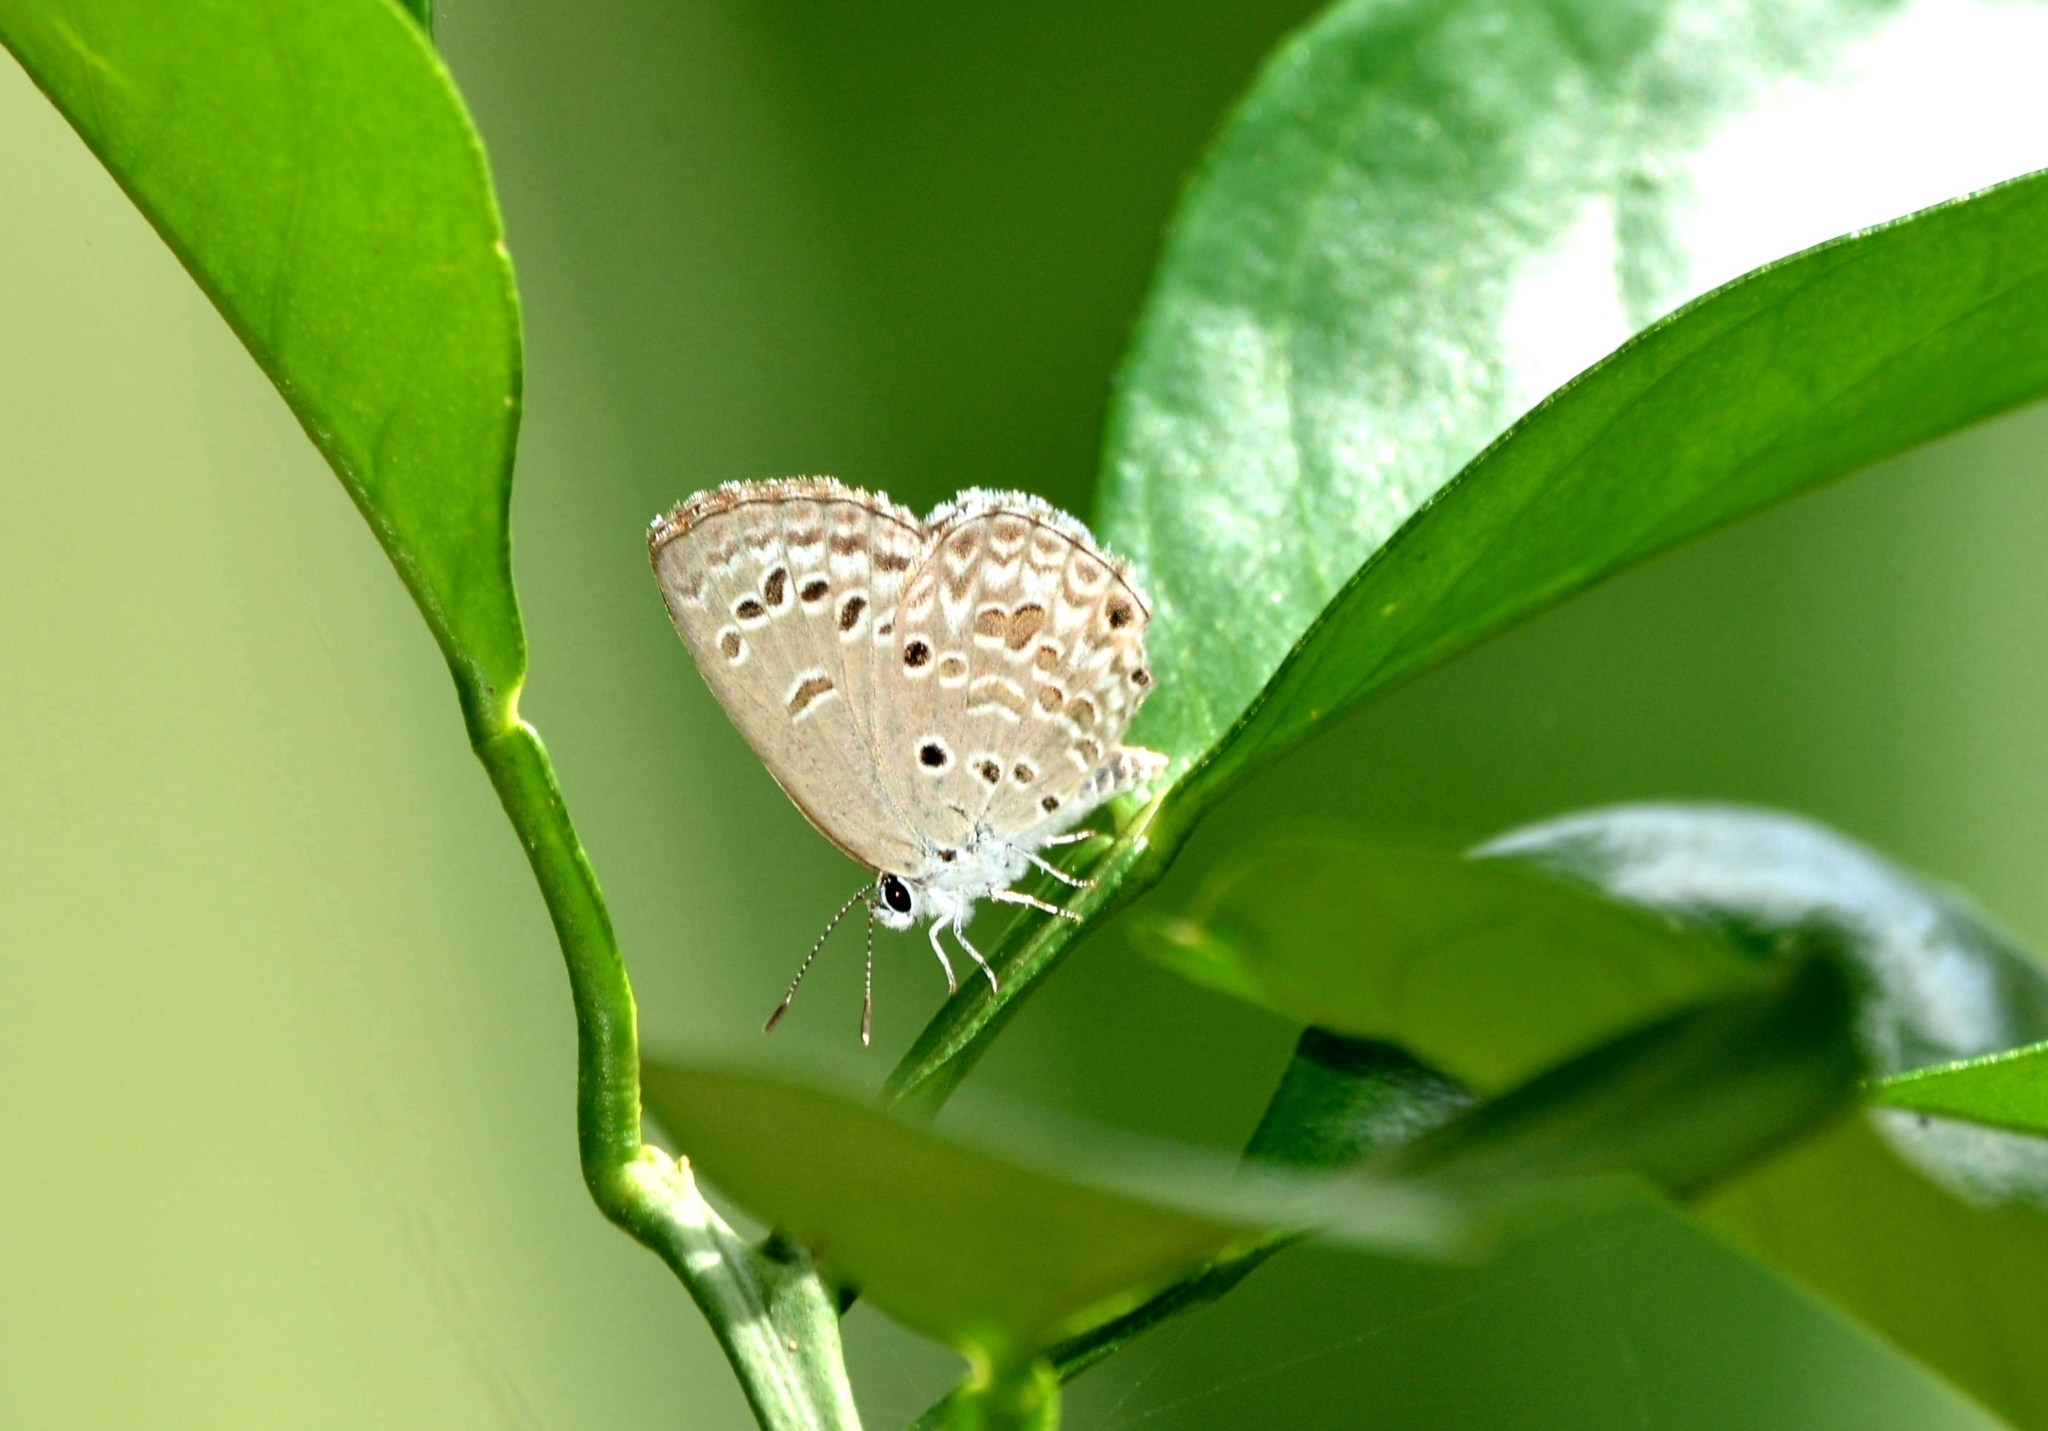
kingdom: Animalia
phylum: Arthropoda
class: Insecta
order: Lepidoptera
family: Lycaenidae
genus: Chilades
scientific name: Chilades laius
